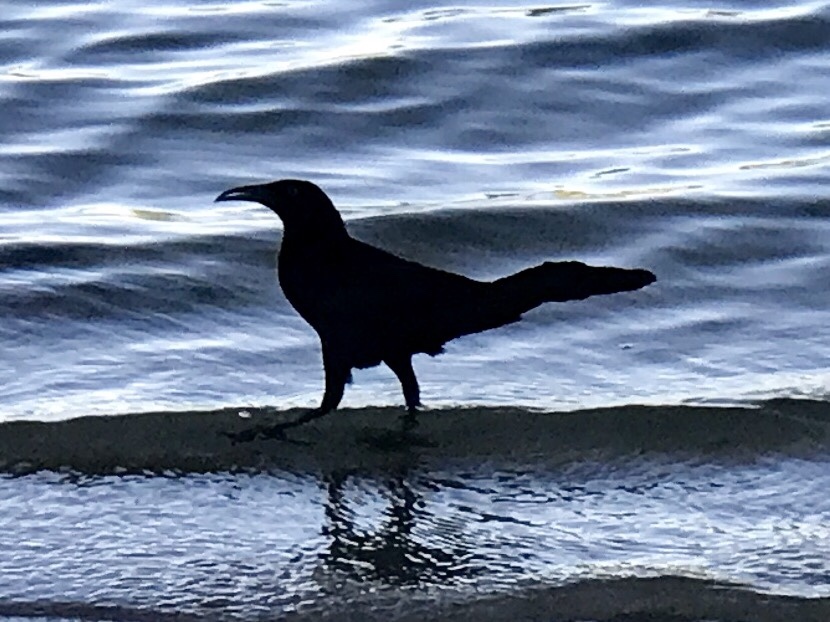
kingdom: Animalia
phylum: Chordata
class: Aves
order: Passeriformes
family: Icteridae
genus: Quiscalus
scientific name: Quiscalus mexicanus
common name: Great-tailed grackle
